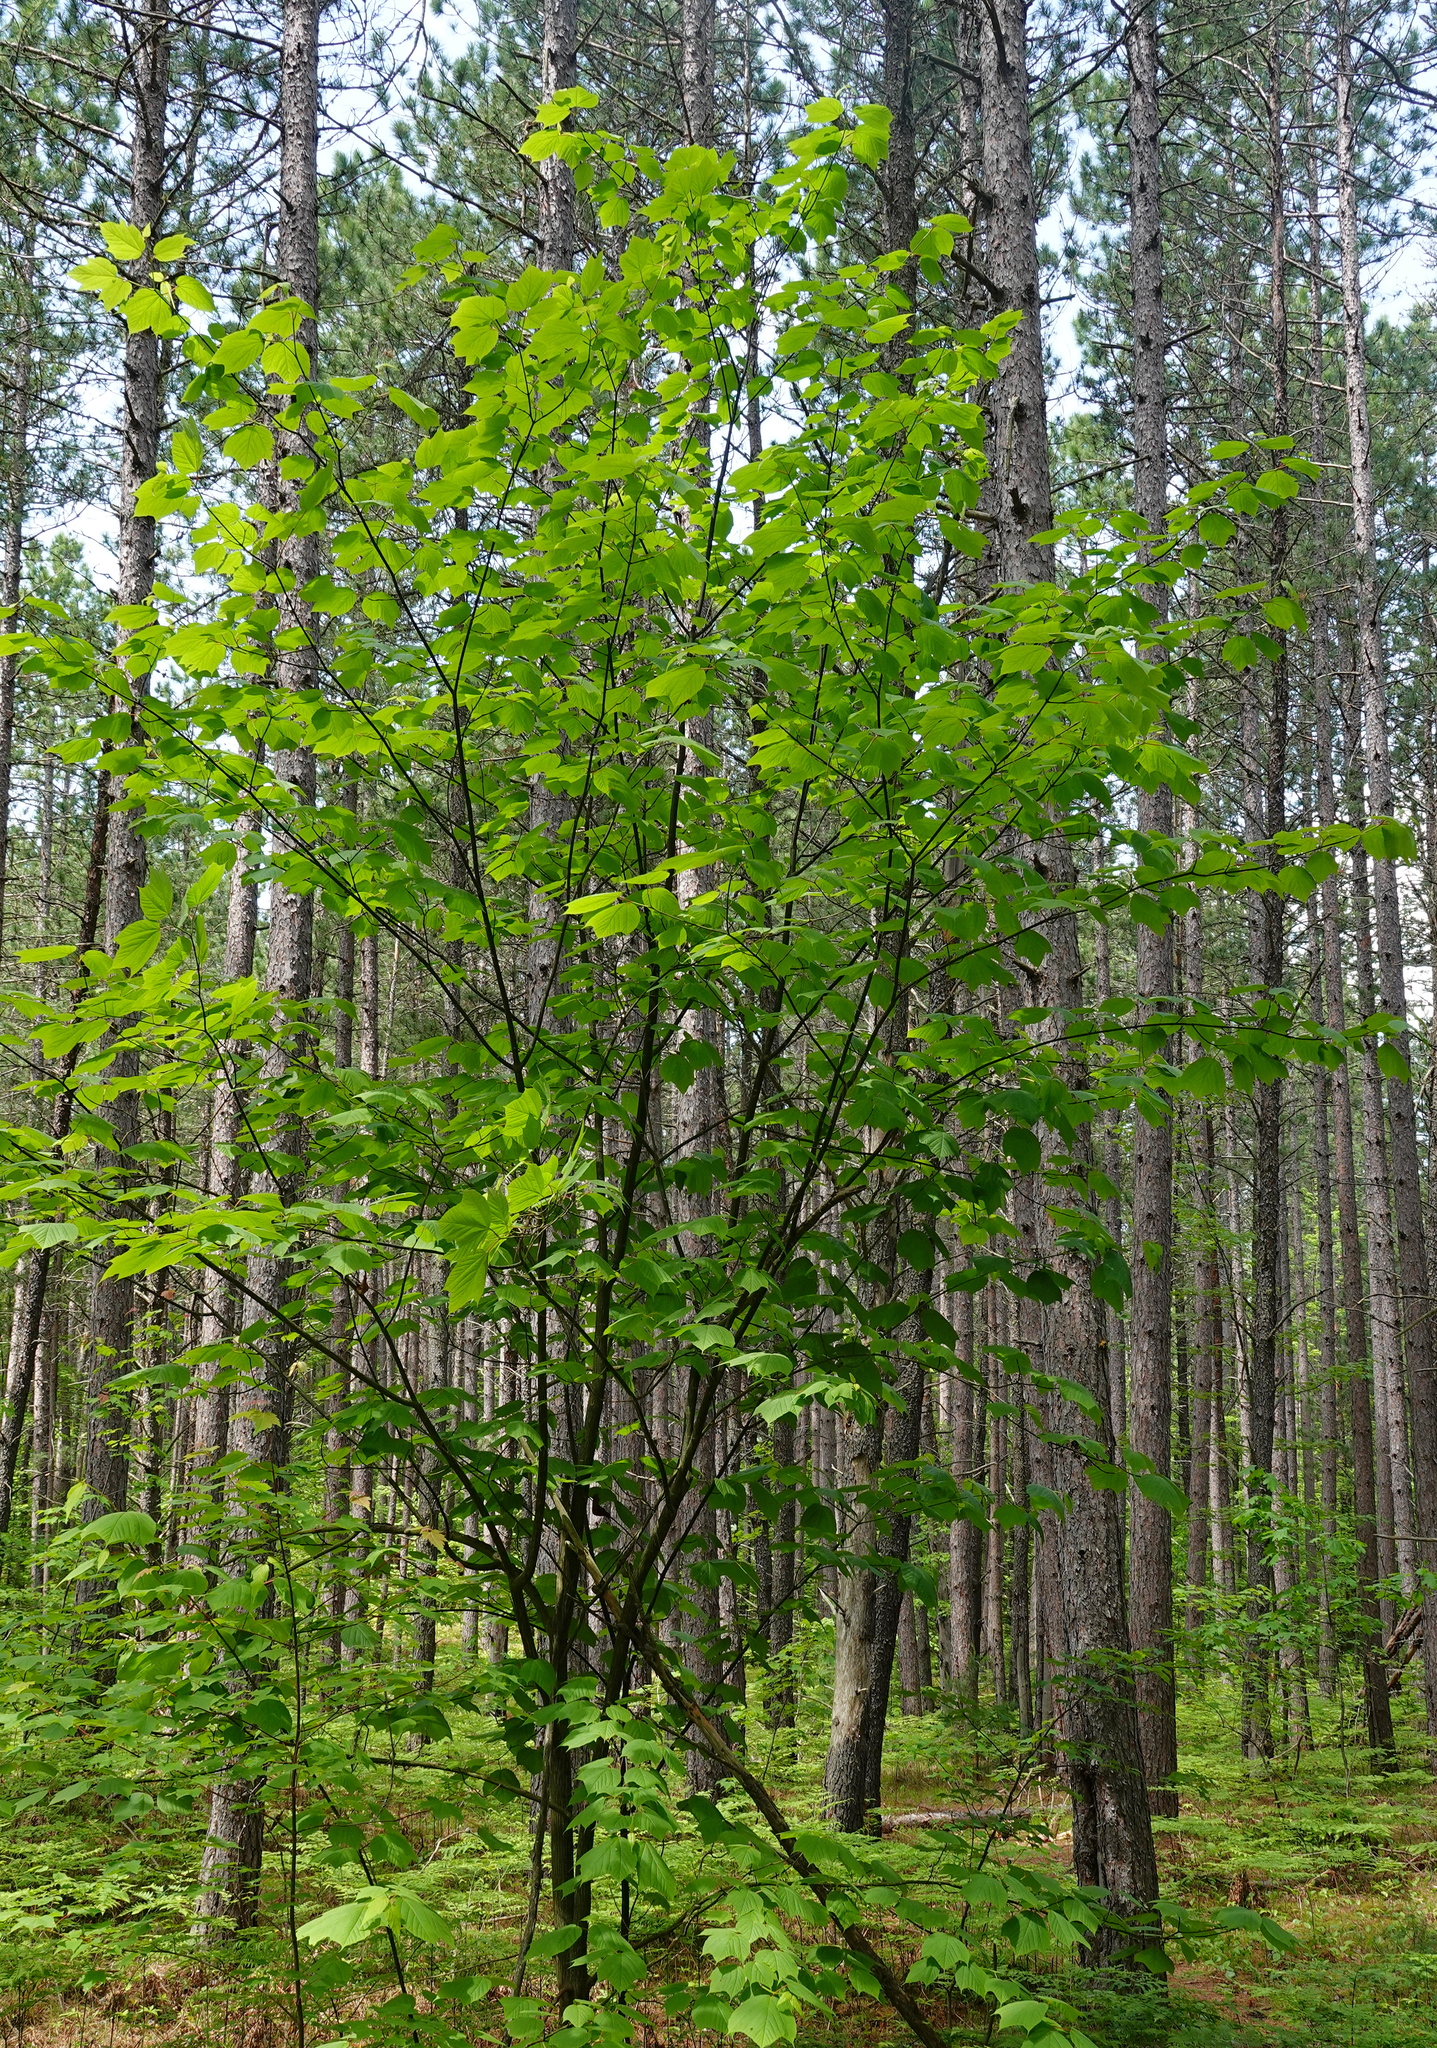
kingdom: Plantae
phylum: Tracheophyta
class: Magnoliopsida
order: Sapindales
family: Sapindaceae
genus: Acer
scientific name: Acer pensylvanicum
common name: Moosewood
